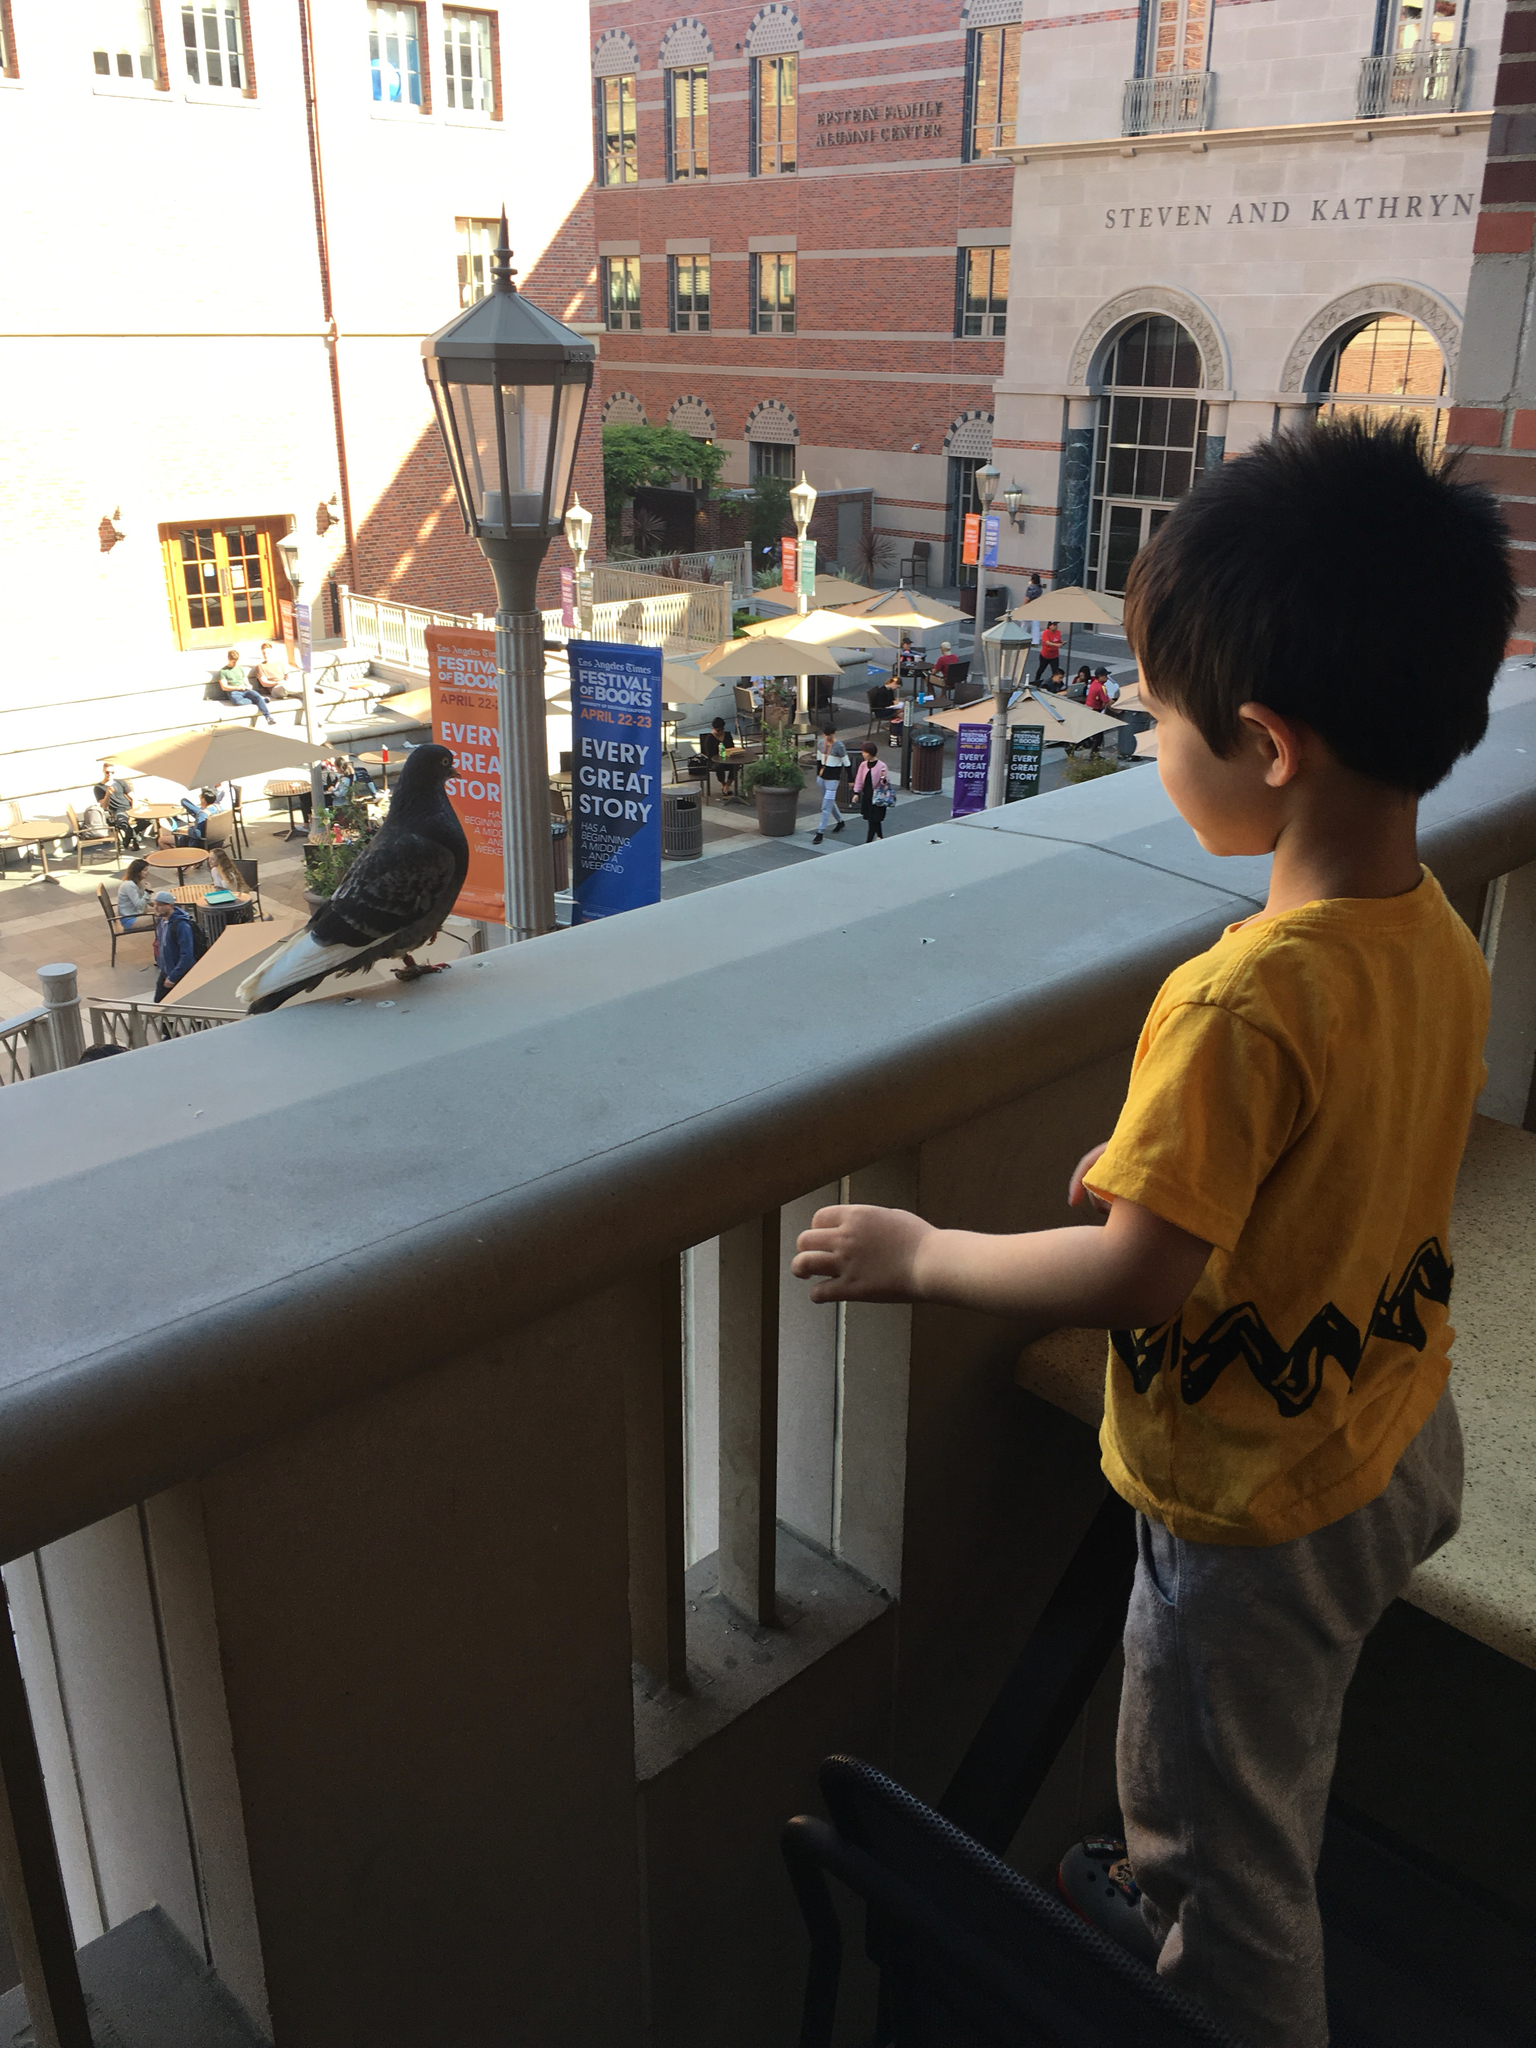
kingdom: Animalia
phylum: Chordata
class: Aves
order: Columbiformes
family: Columbidae
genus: Columba
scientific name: Columba livia
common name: Rock pigeon
